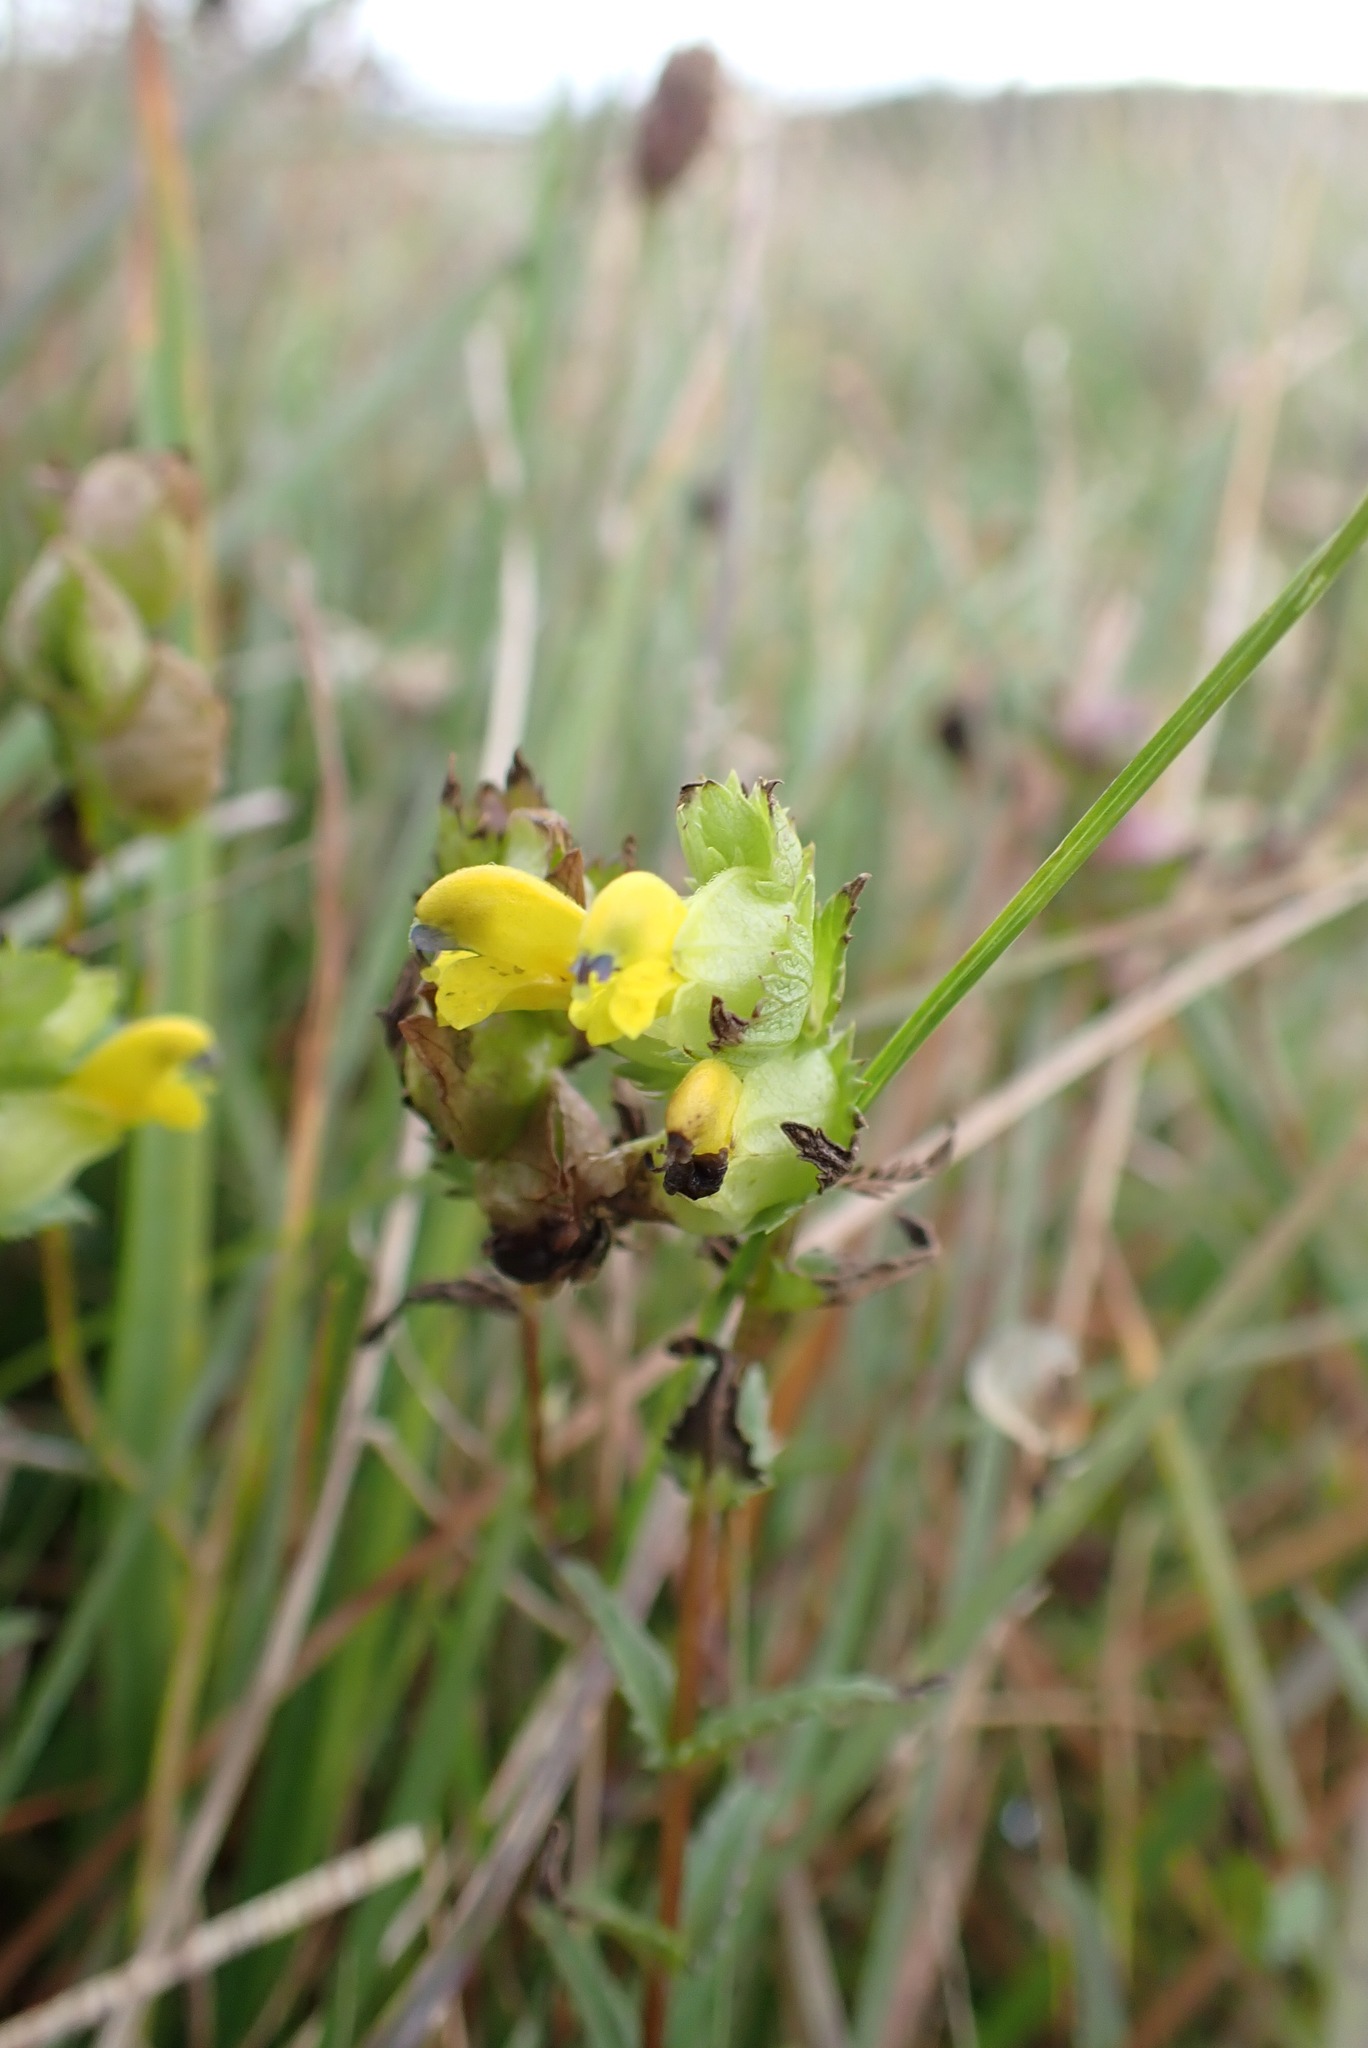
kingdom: Plantae
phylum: Tracheophyta
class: Magnoliopsida
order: Lamiales
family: Orobanchaceae
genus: Rhinanthus
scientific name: Rhinanthus minor
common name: Yellow-rattle
